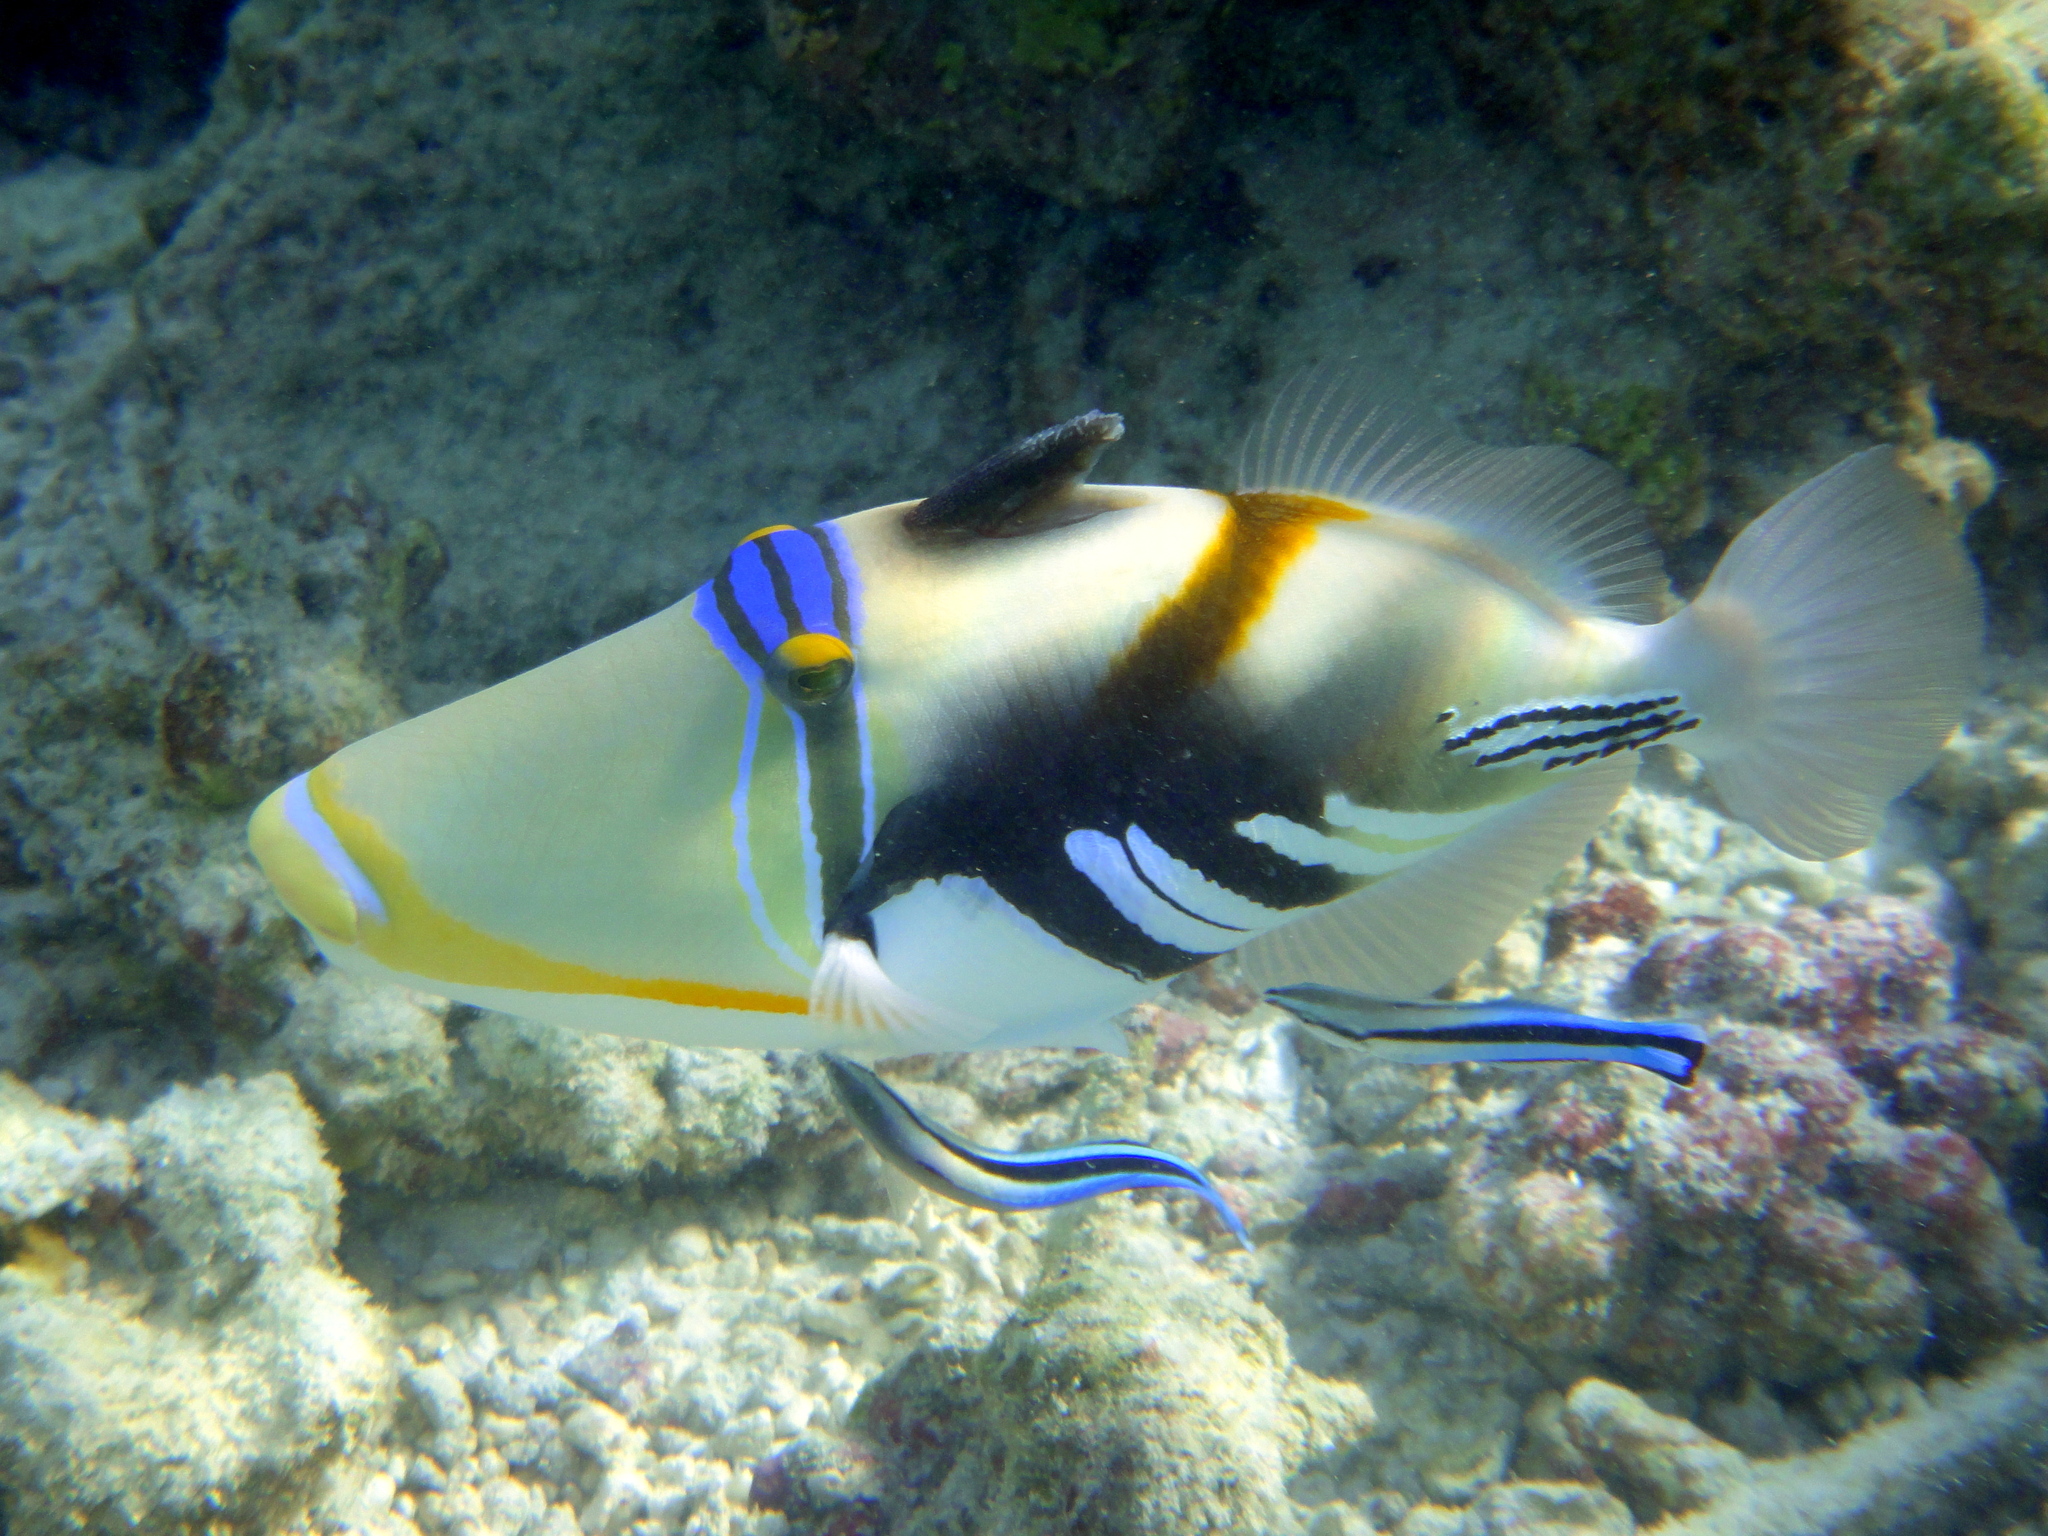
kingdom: Animalia
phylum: Chordata
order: Tetraodontiformes
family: Balistidae
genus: Rhinecanthus
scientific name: Rhinecanthus aculeatus
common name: White-banded triggerfish
